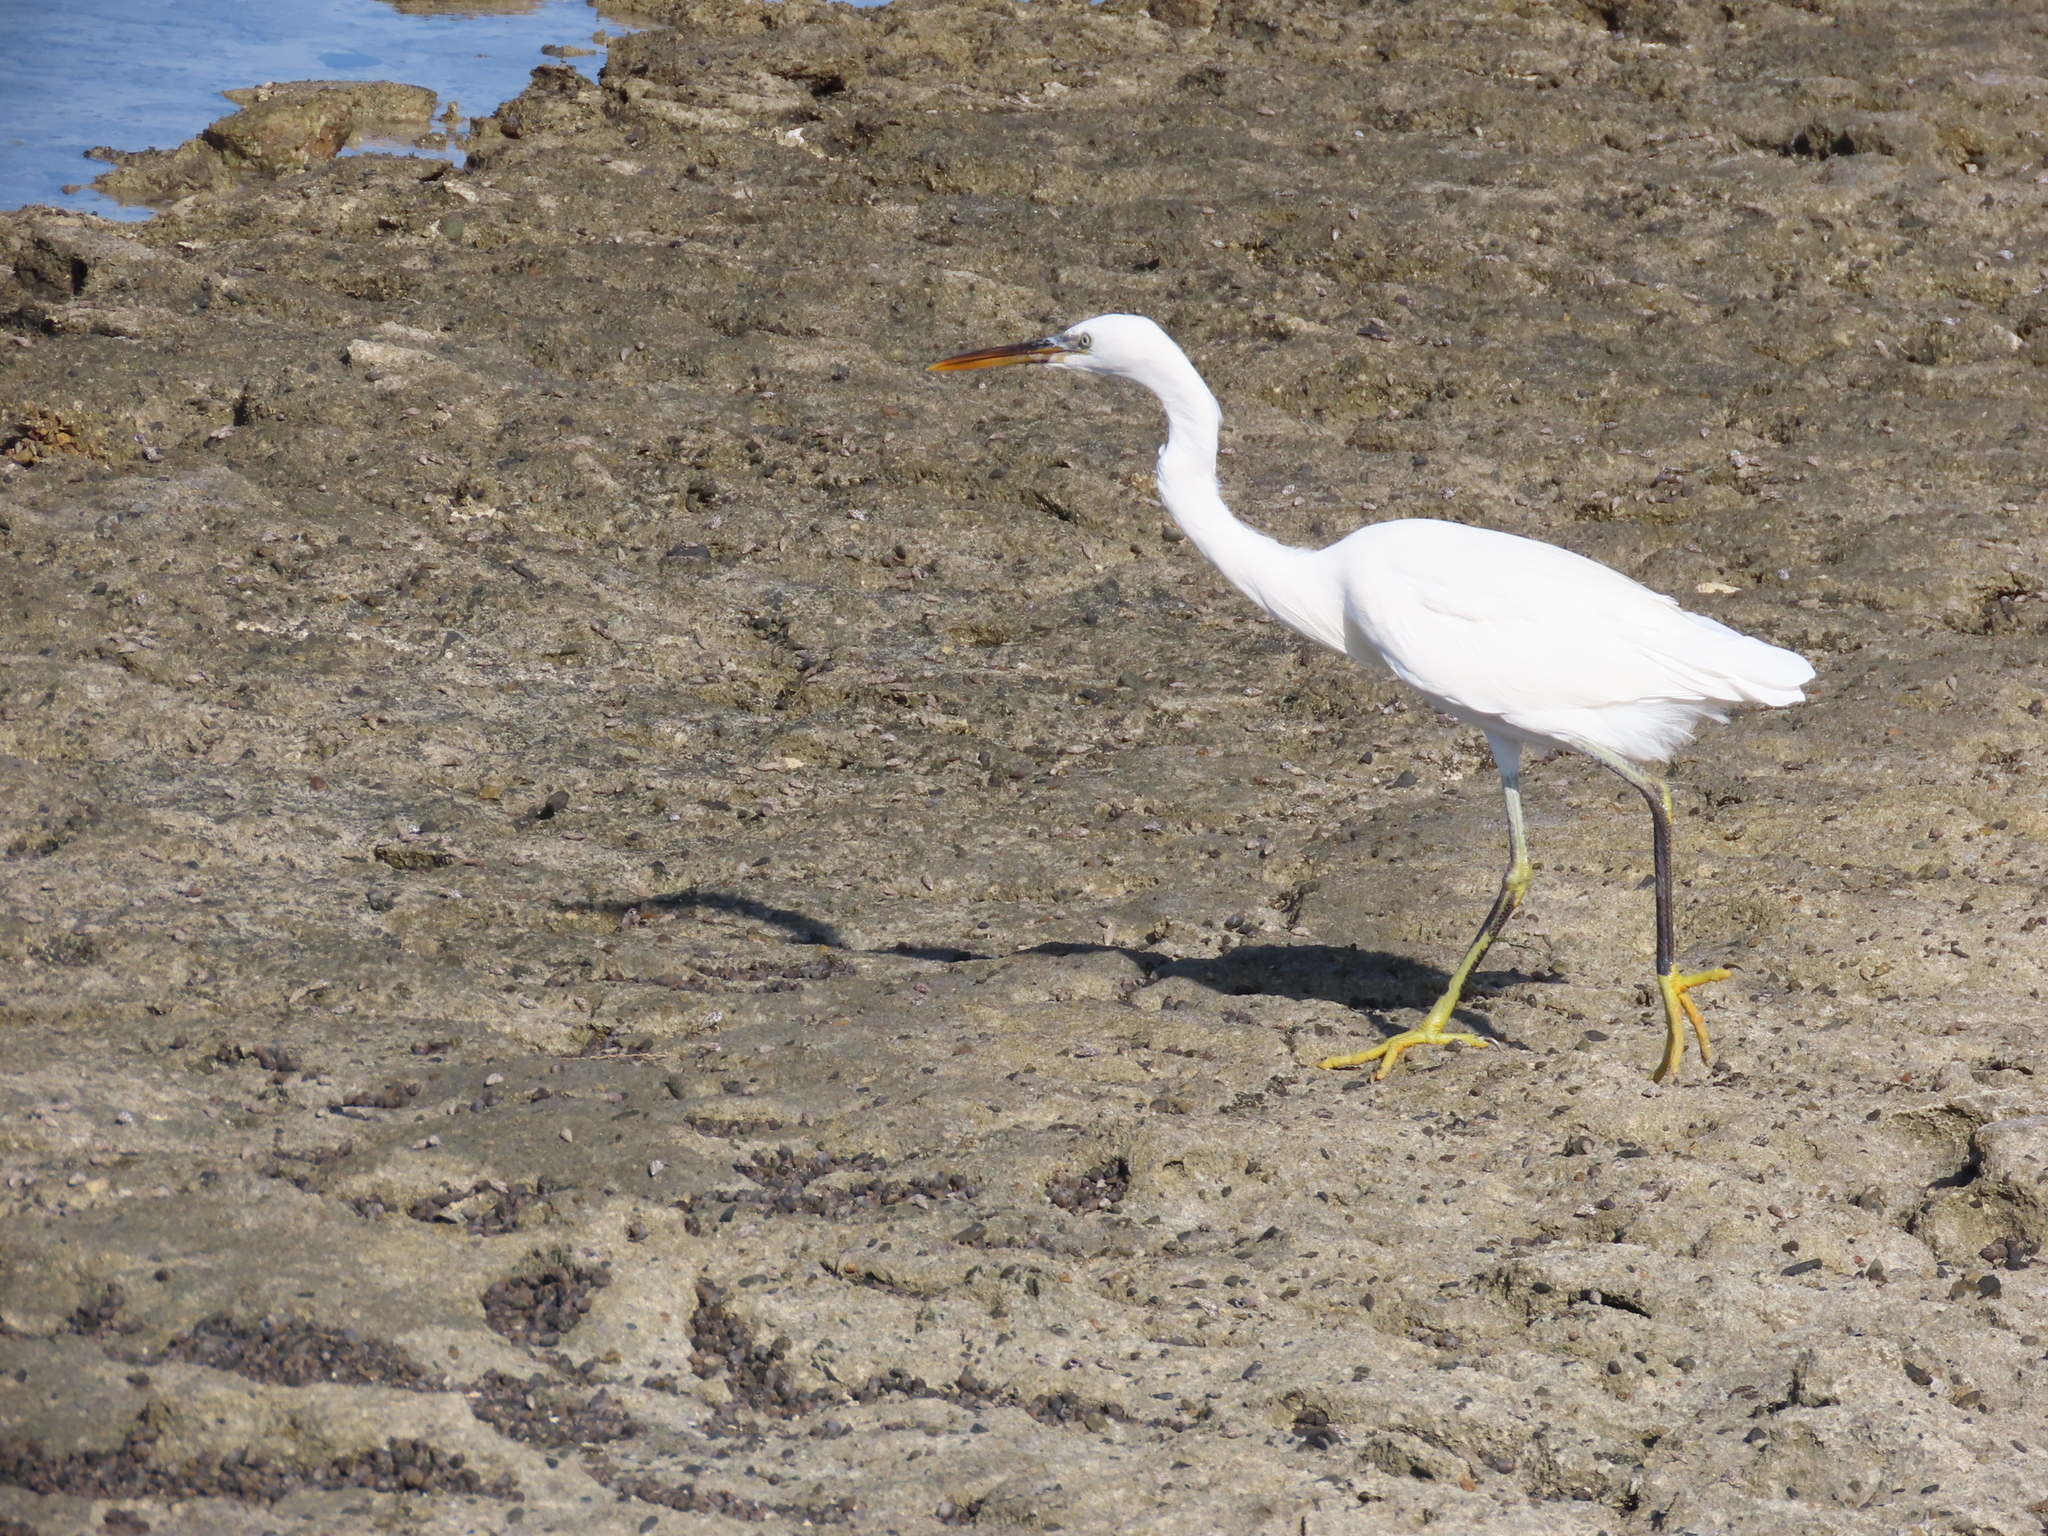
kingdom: Animalia
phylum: Chordata
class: Aves
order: Pelecaniformes
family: Ardeidae
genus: Egretta
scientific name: Egretta gularis
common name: Western reef-heron
